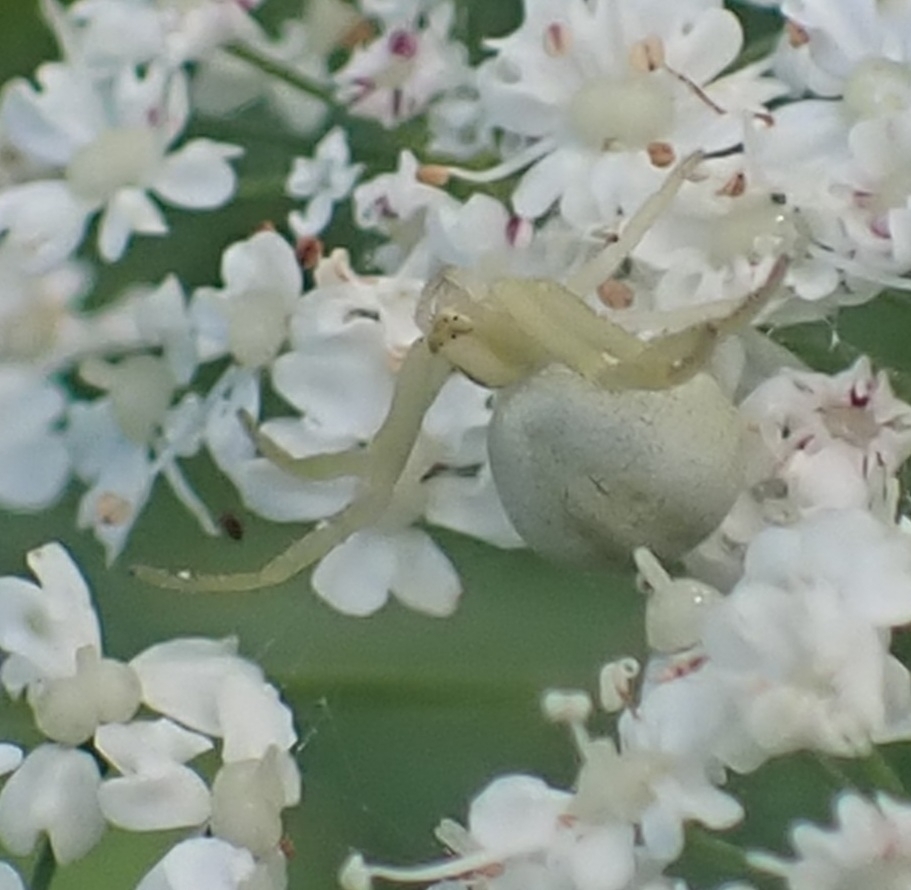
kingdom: Animalia
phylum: Arthropoda
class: Arachnida
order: Araneae
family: Thomisidae
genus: Misumena
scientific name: Misumena vatia
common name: Goldenrod crab spider
